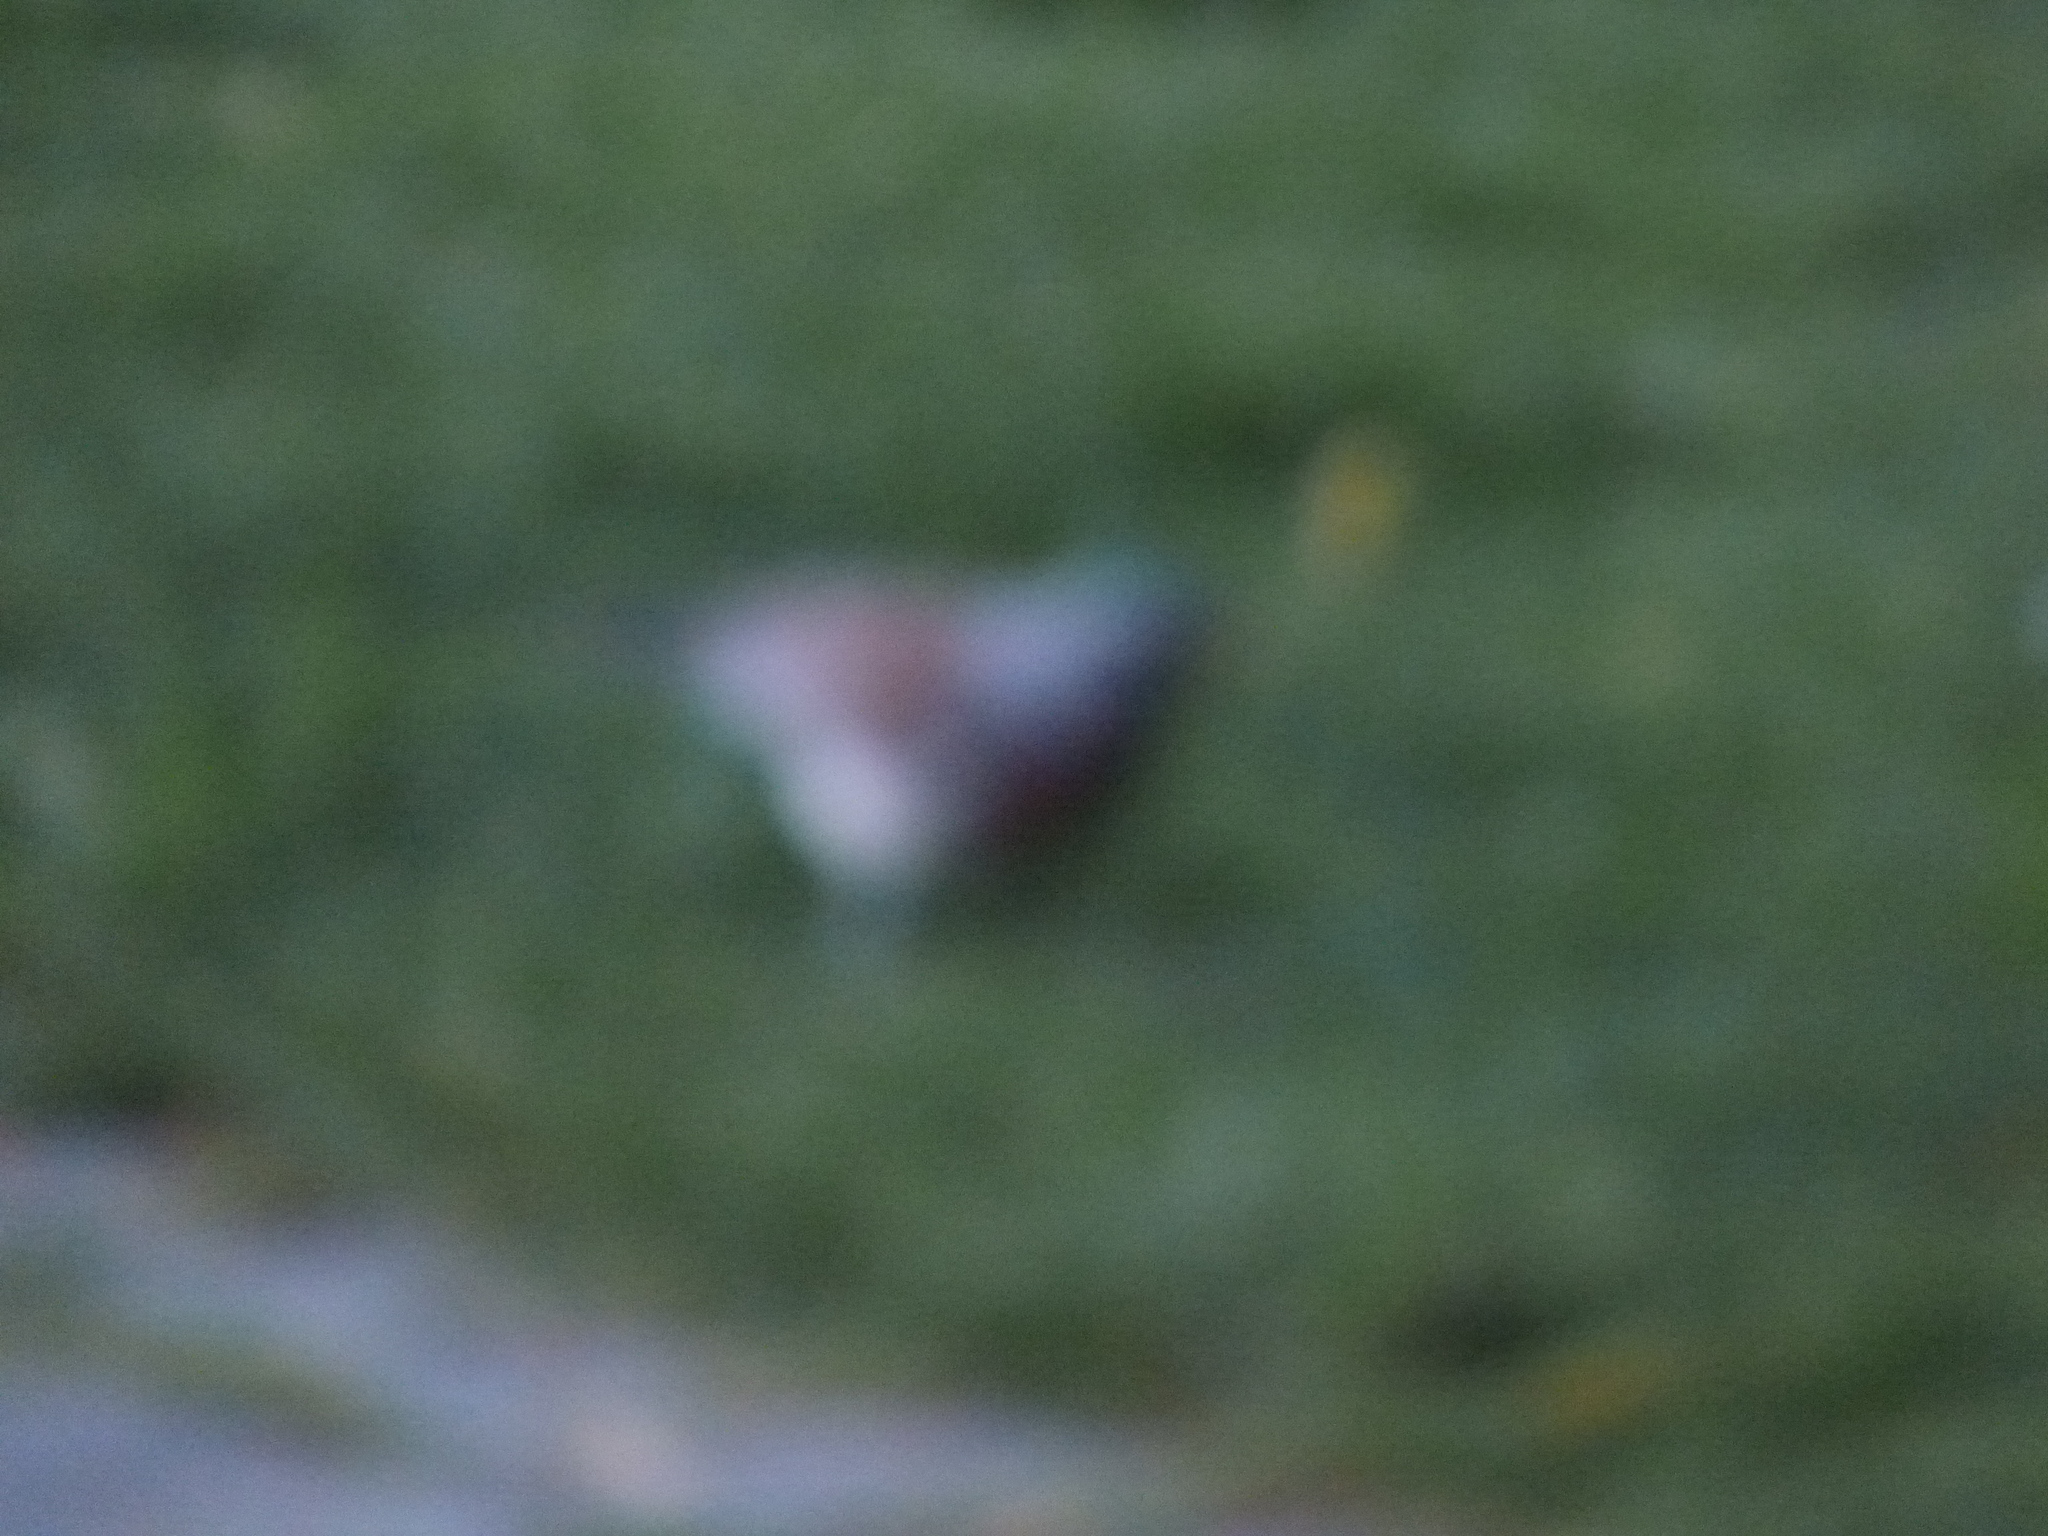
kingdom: Animalia
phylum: Chordata
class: Aves
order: Passeriformes
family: Turdidae
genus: Turdus
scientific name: Turdus pilaris
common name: Fieldfare
